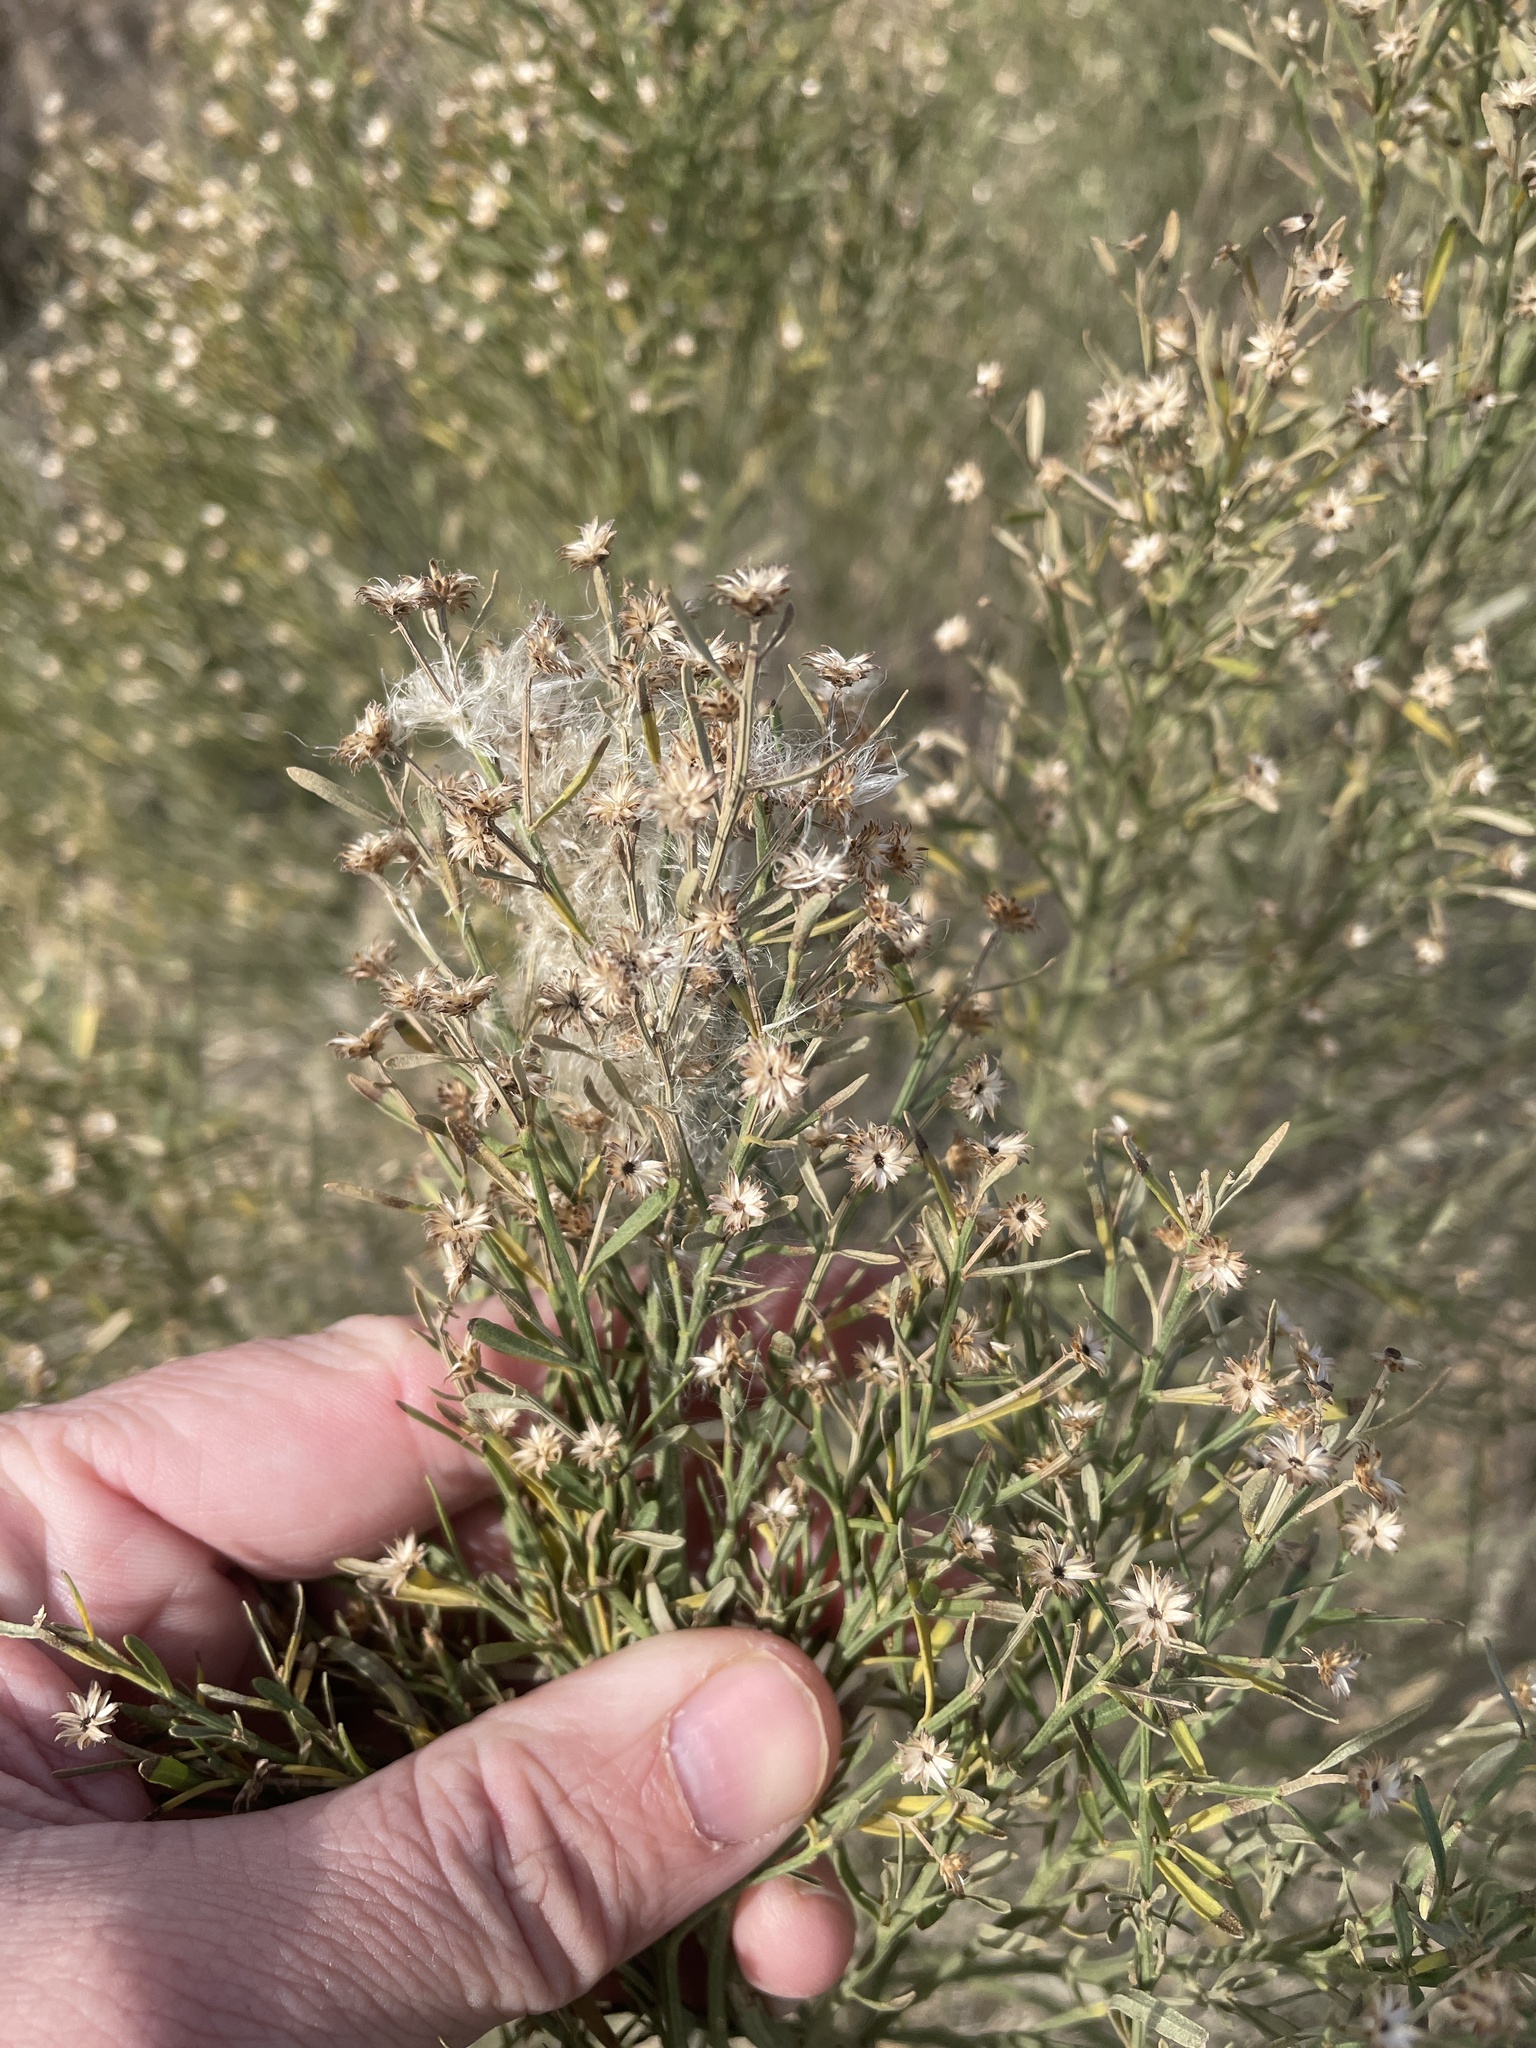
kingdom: Plantae
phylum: Tracheophyta
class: Magnoliopsida
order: Asterales
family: Asteraceae
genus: Baccharis
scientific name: Baccharis neglecta
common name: Roosevelt-weed
